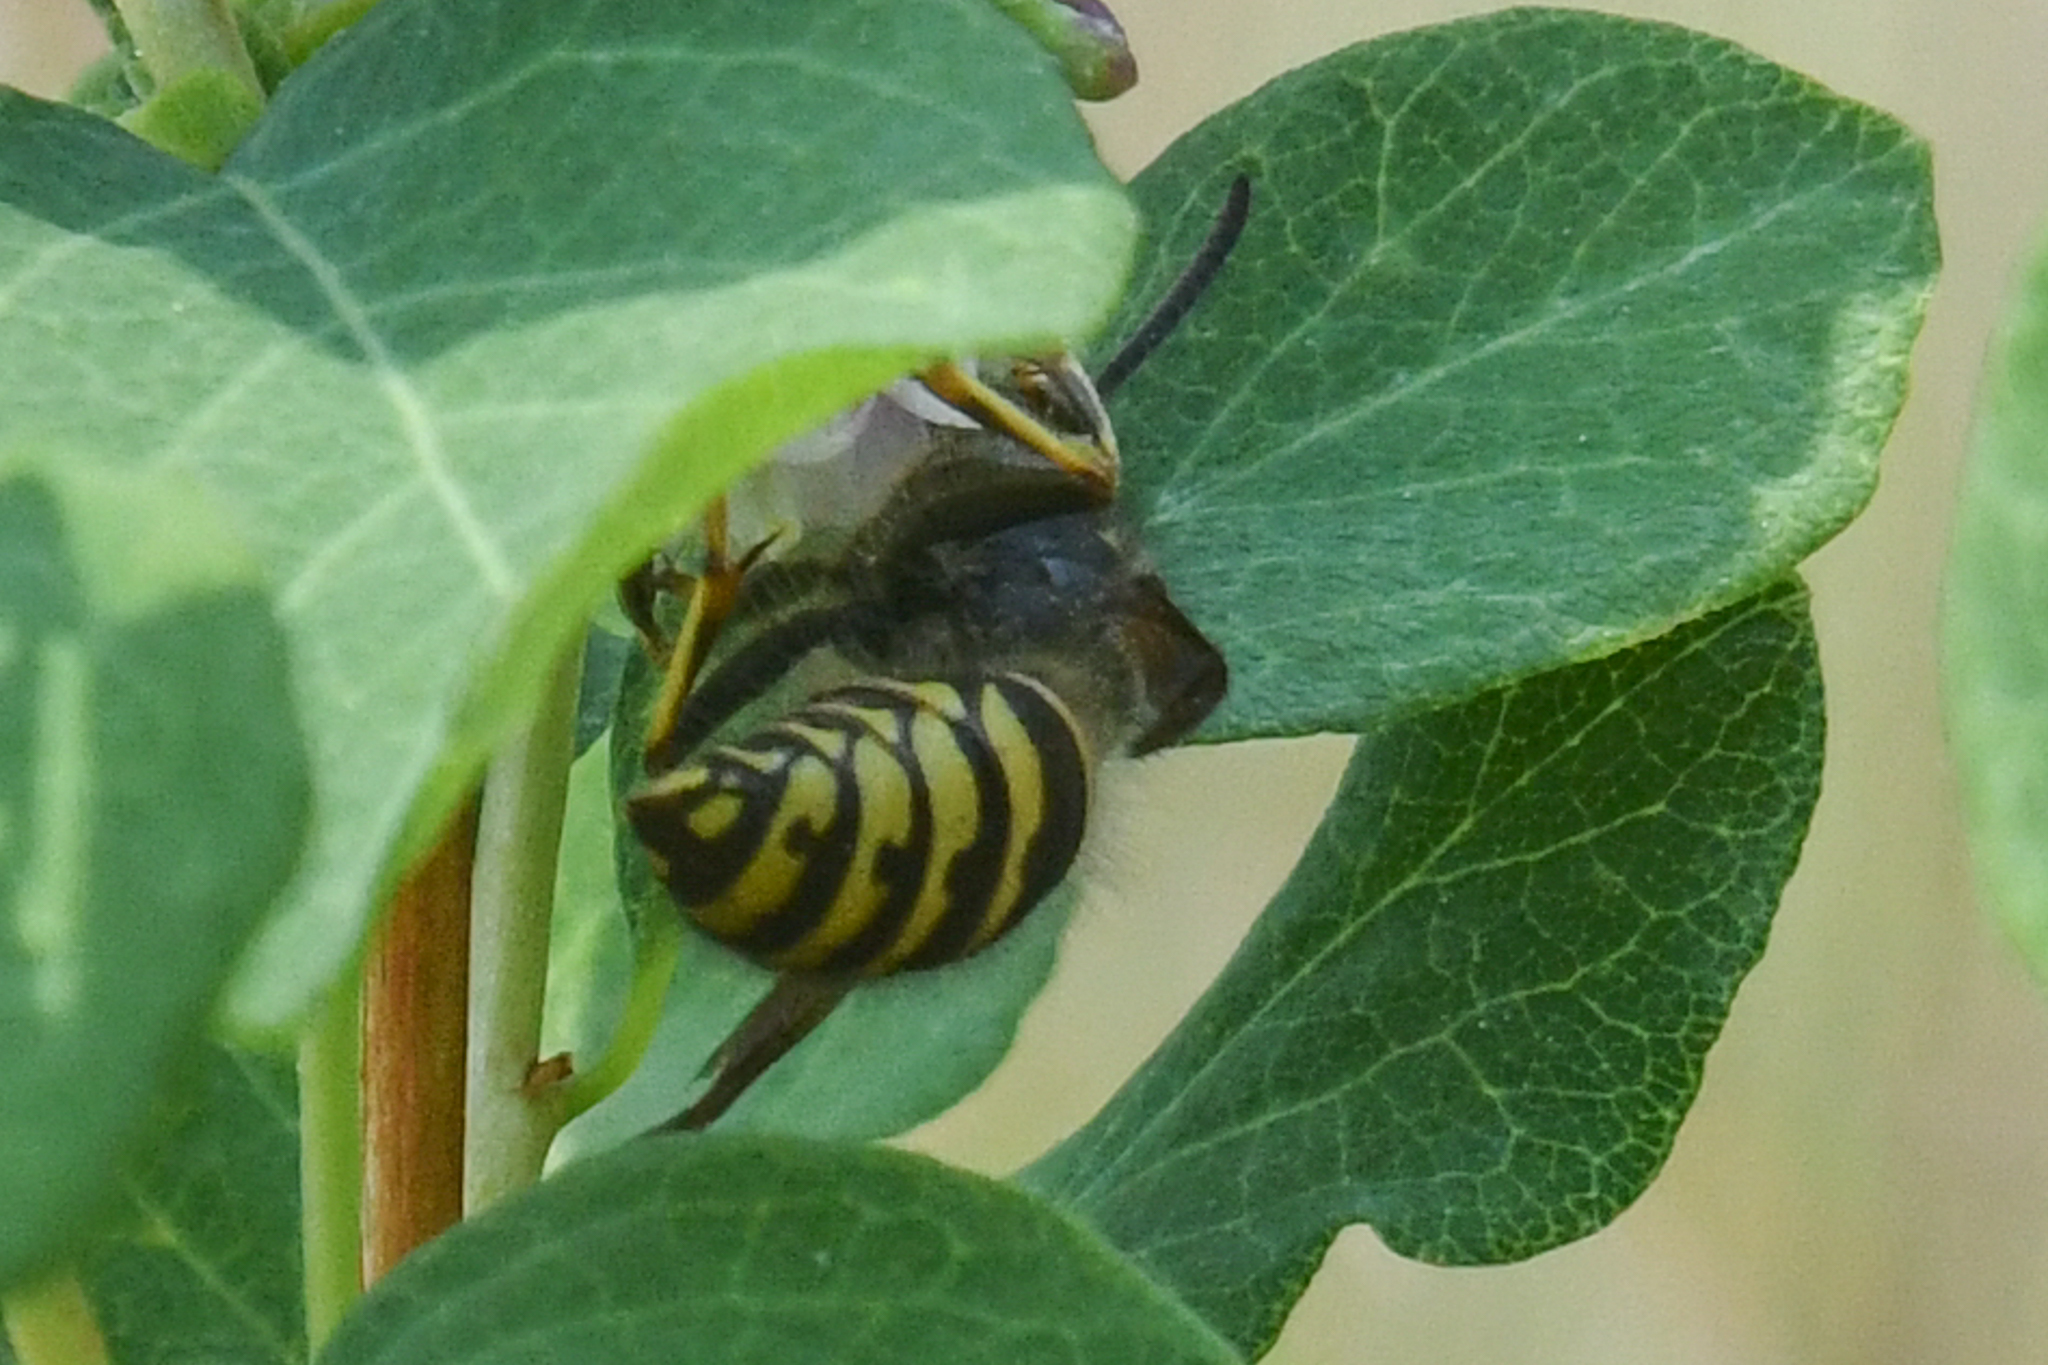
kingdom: Animalia
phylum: Arthropoda
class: Insecta
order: Hymenoptera
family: Vespidae
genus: Dolichovespula
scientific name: Dolichovespula alpicola
